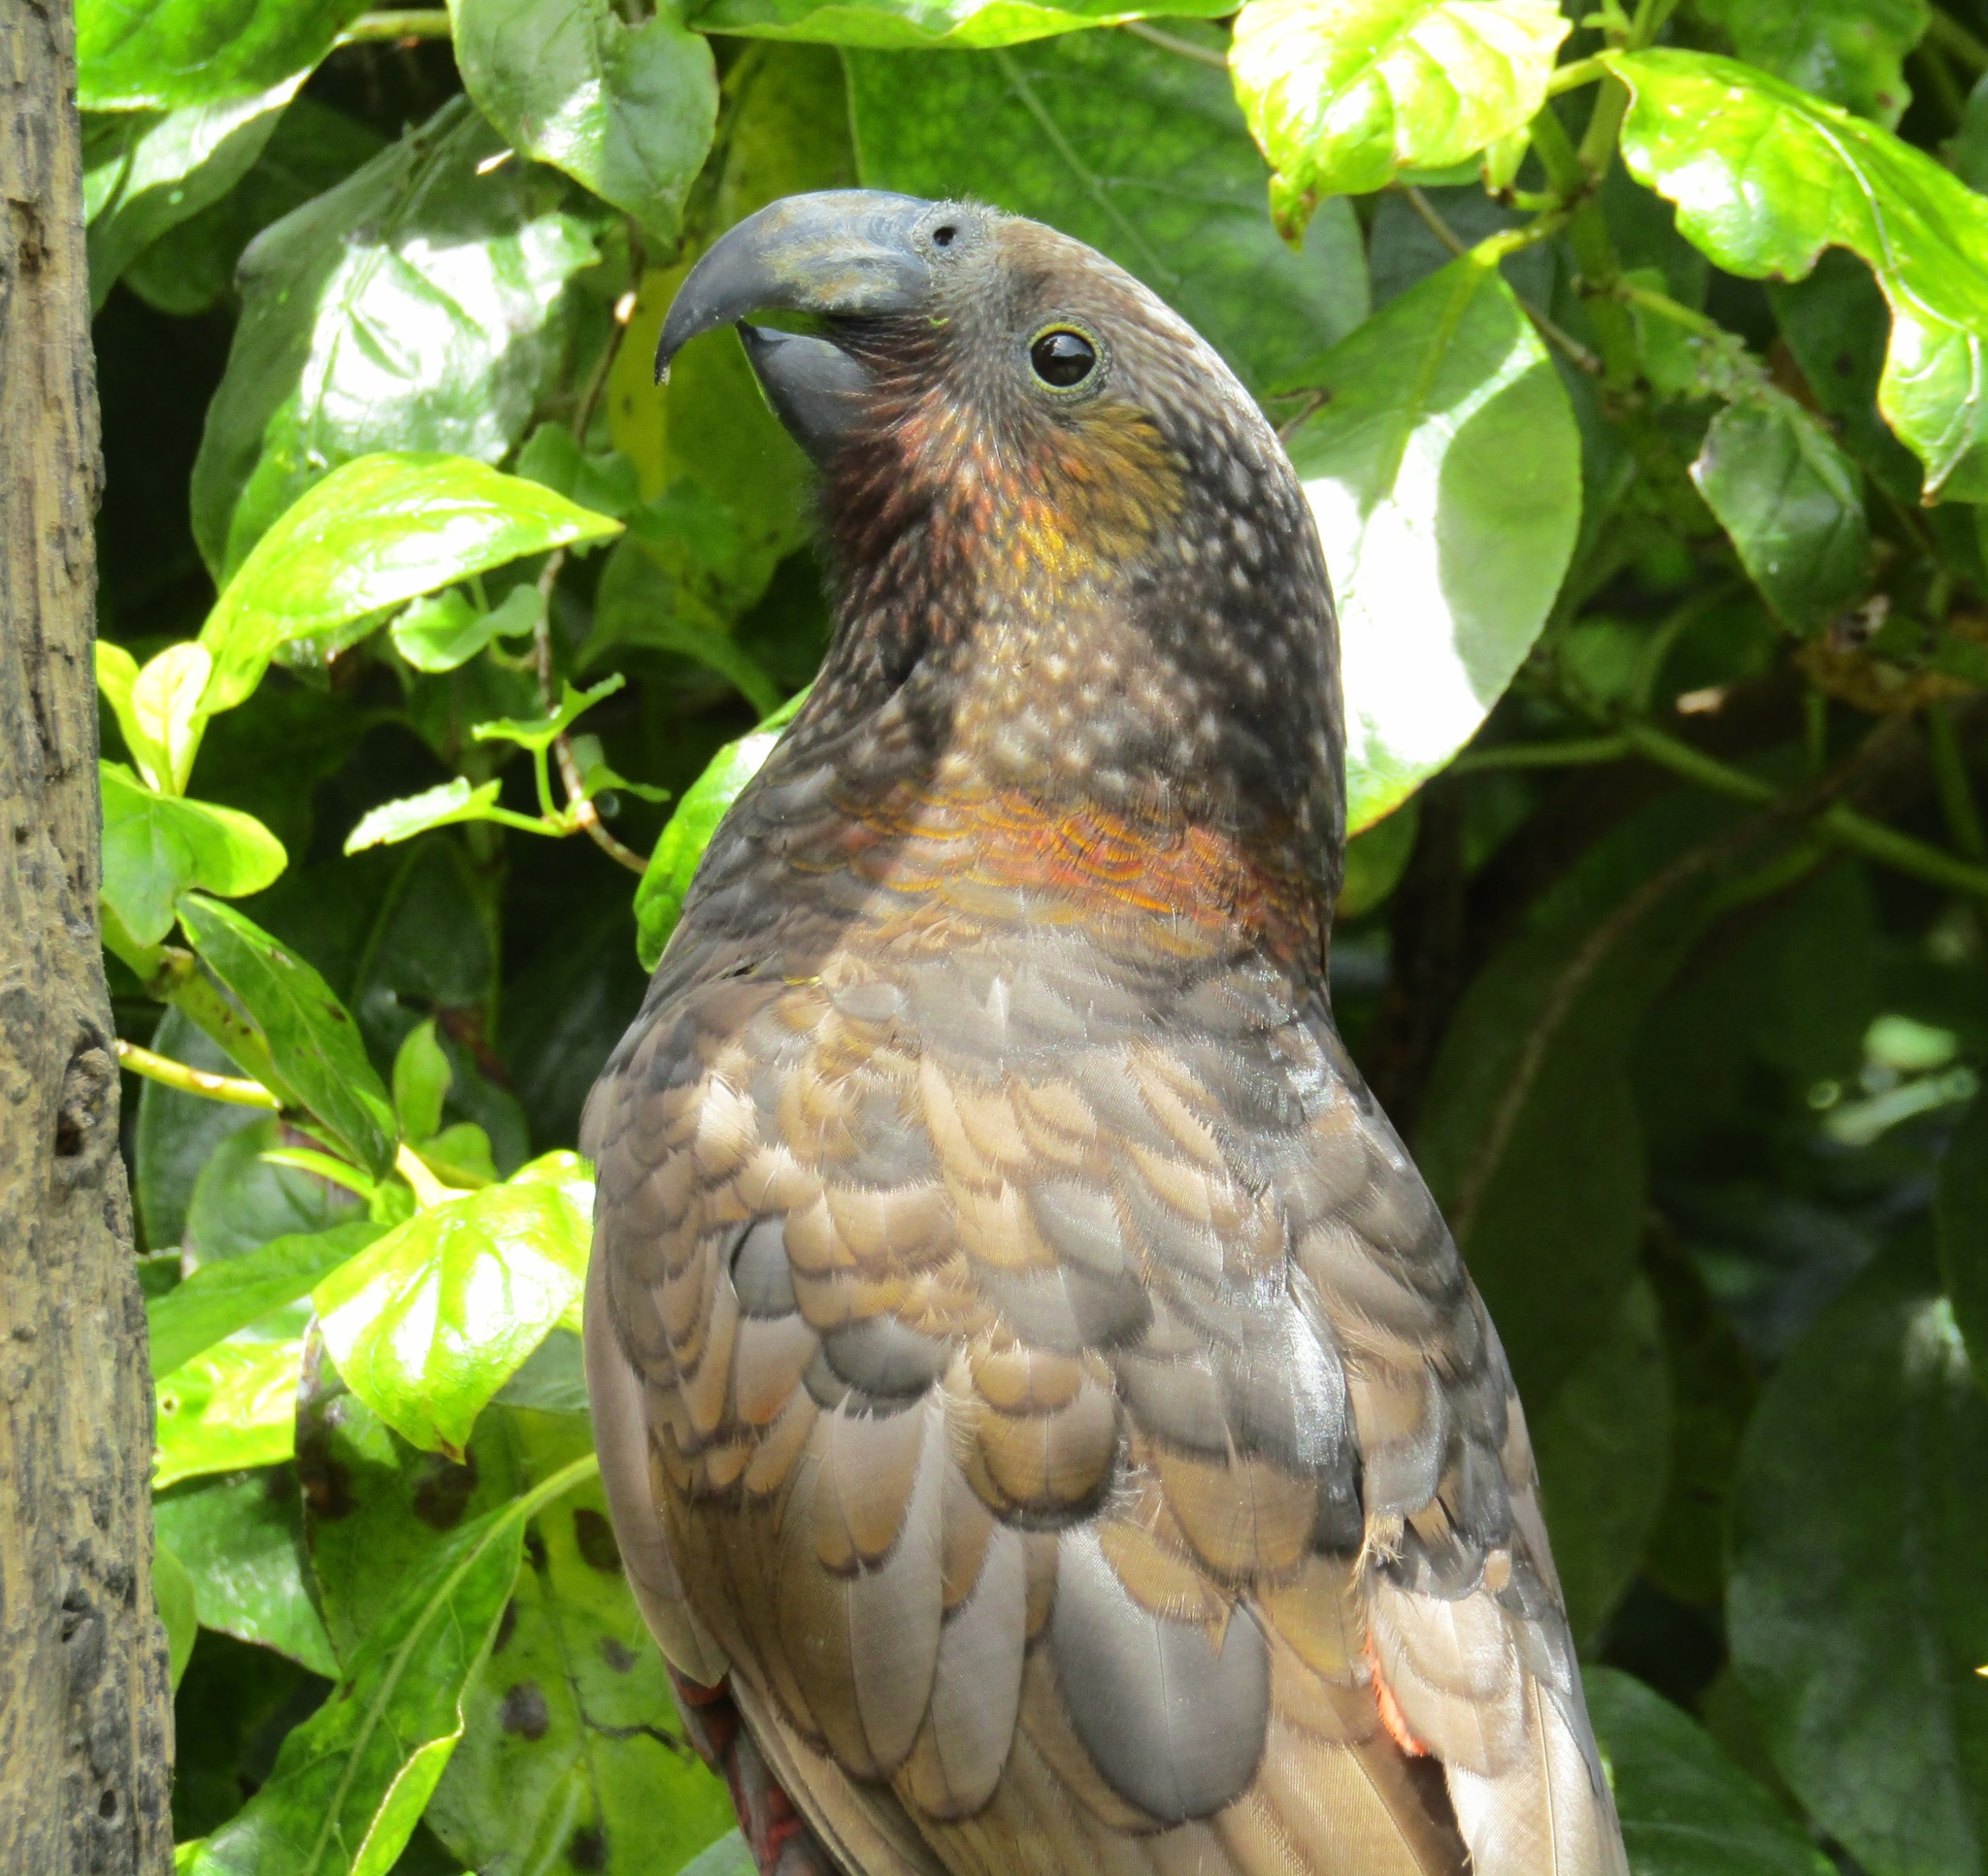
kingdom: Animalia
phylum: Chordata
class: Aves
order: Psittaciformes
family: Psittacidae
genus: Nestor
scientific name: Nestor meridionalis
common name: New zealand kaka
